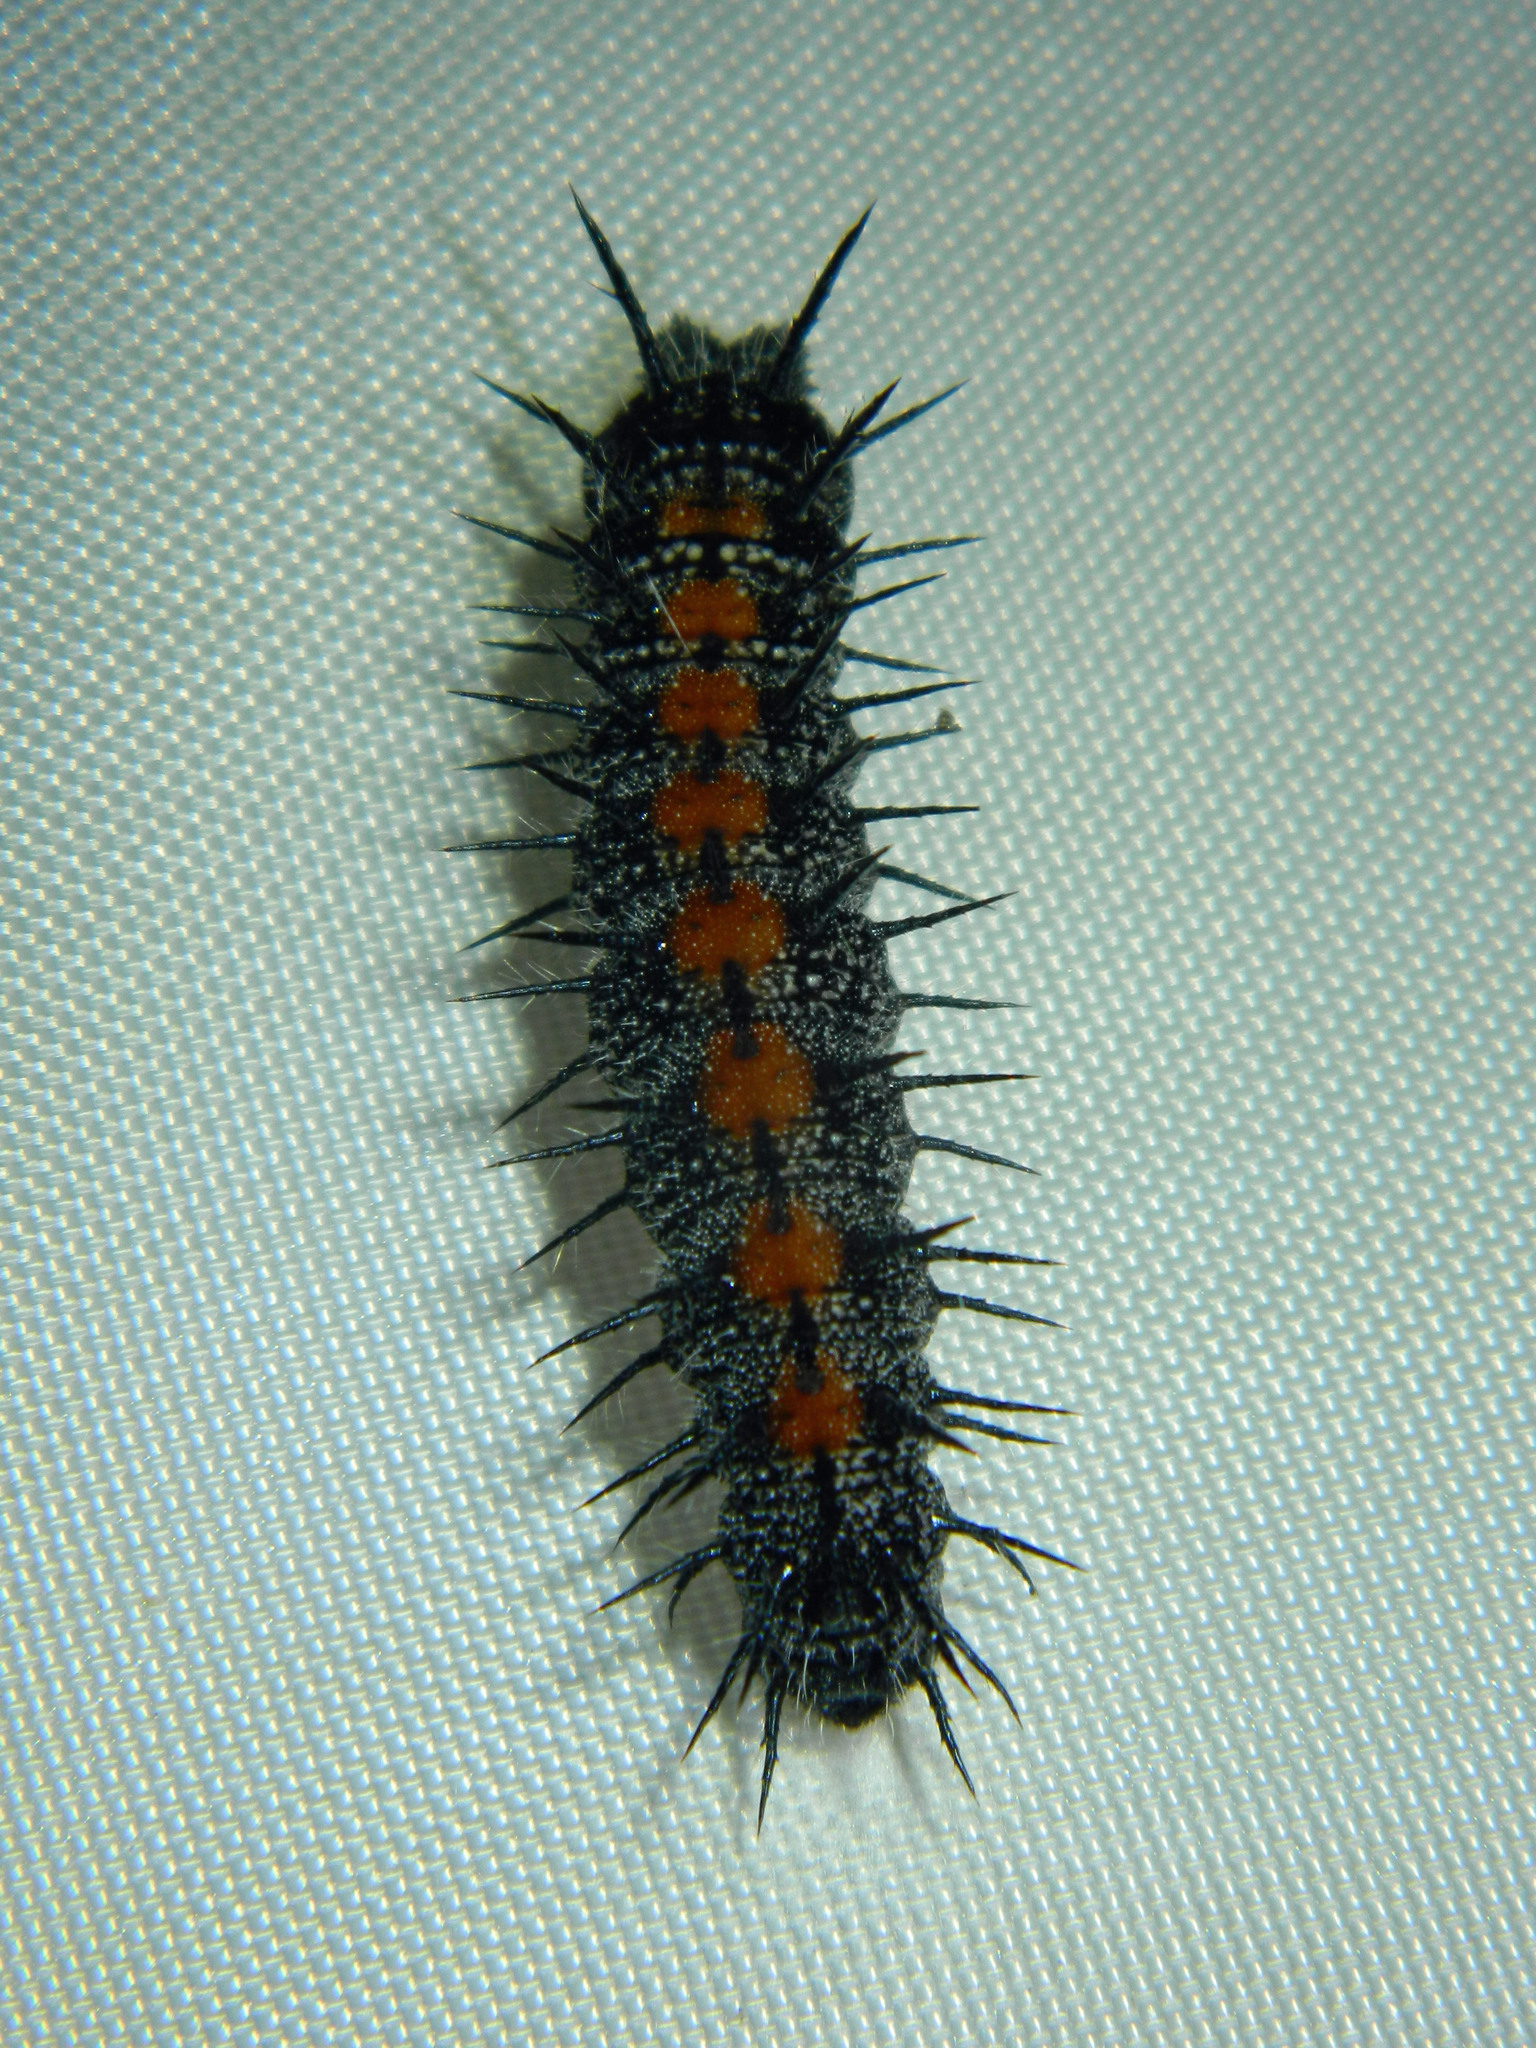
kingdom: Animalia
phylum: Arthropoda
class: Insecta
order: Lepidoptera
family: Nymphalidae
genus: Nymphalis
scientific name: Nymphalis antiopa
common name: Camberwell beauty
